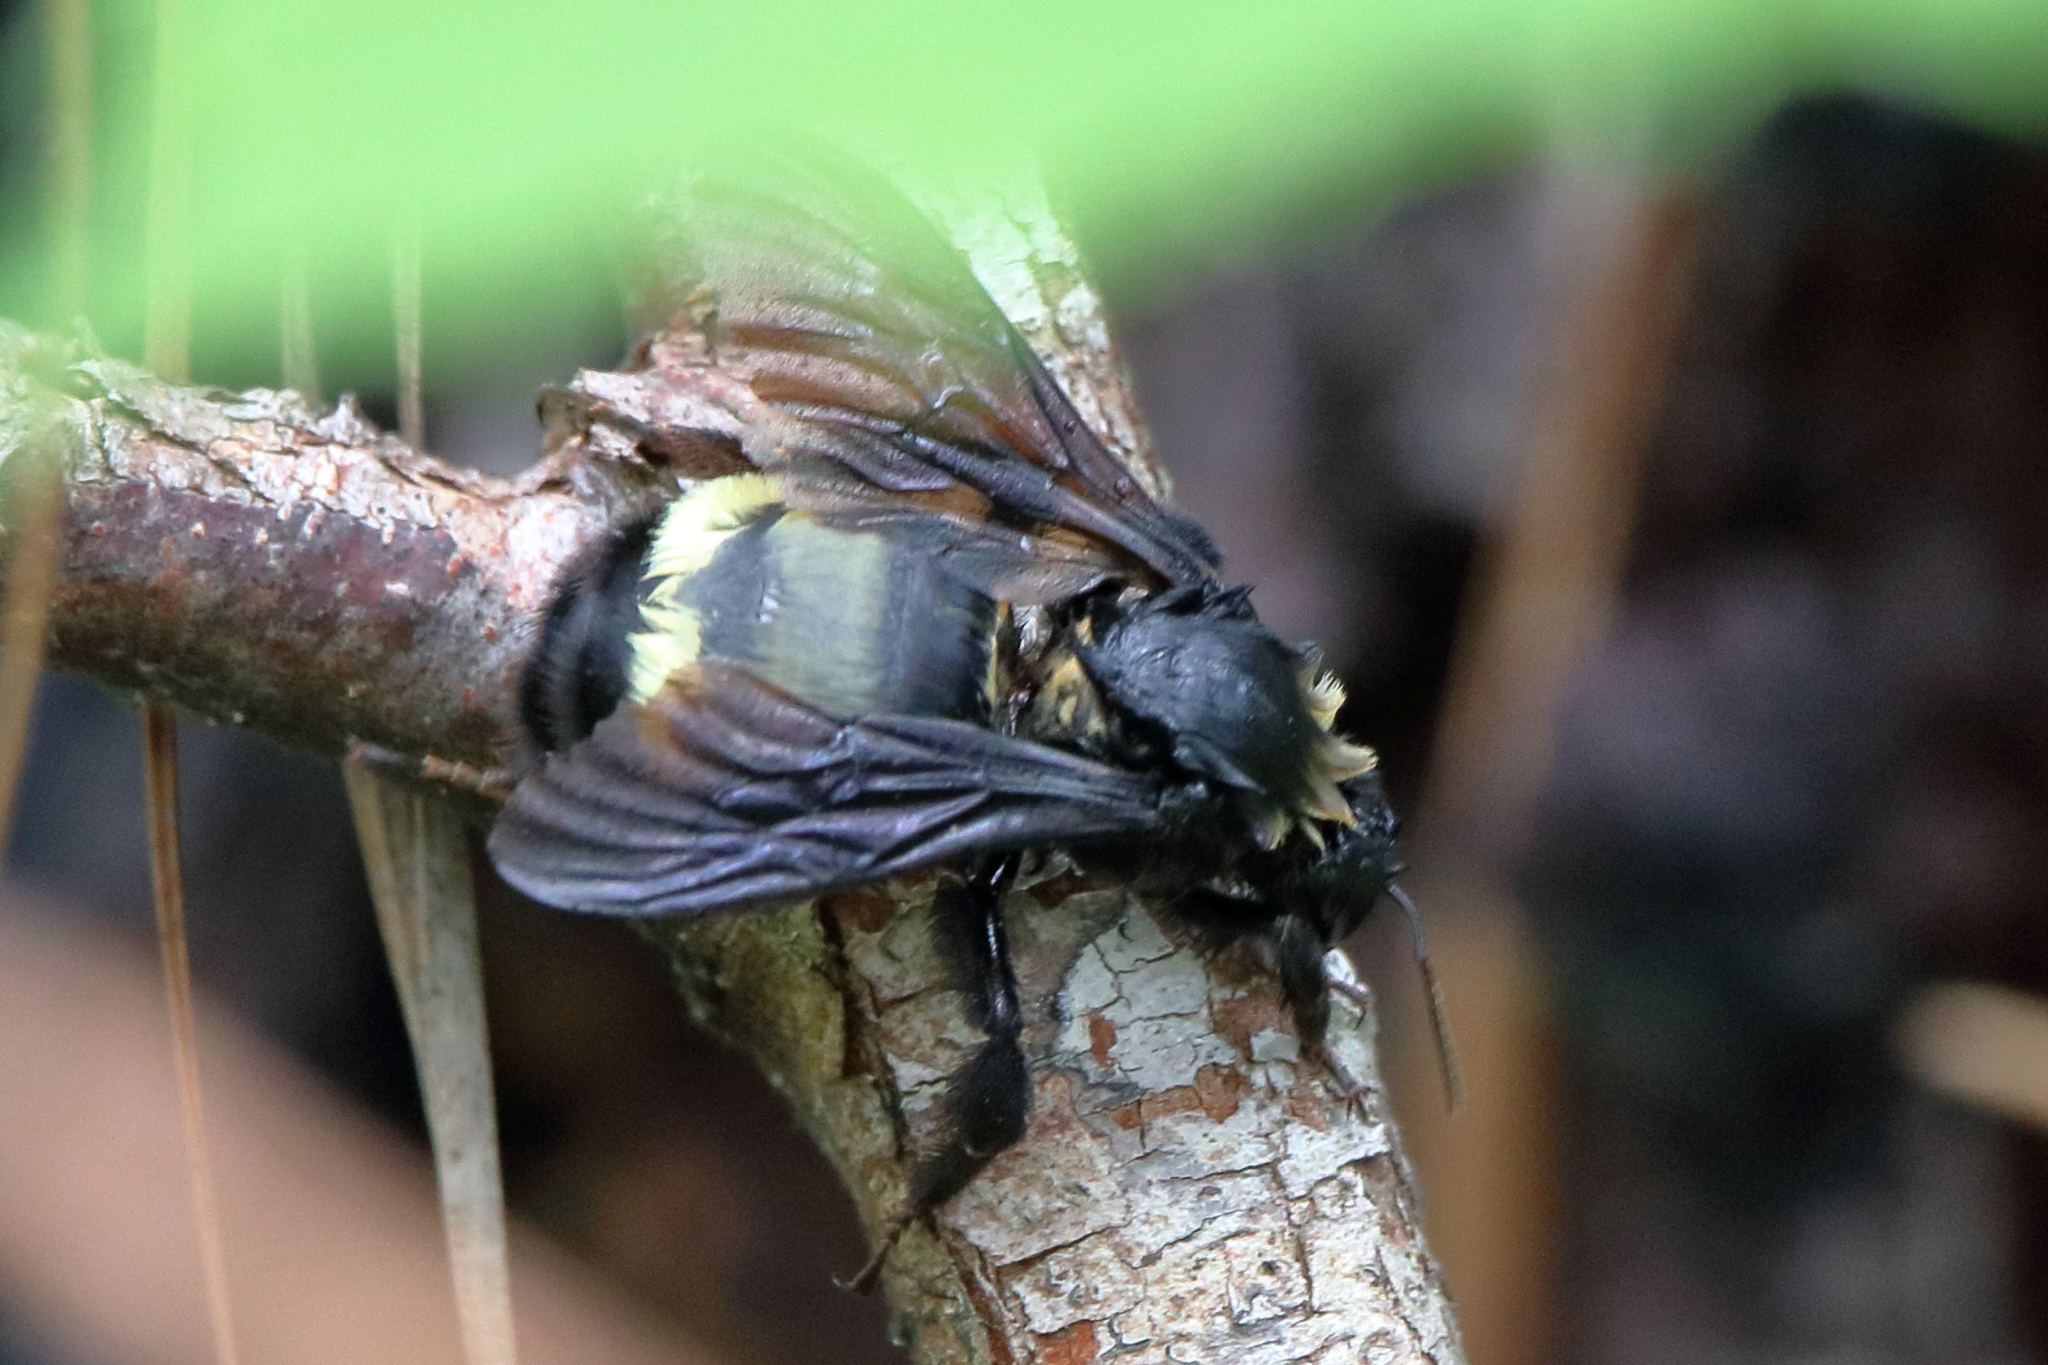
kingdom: Animalia
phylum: Arthropoda
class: Insecta
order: Hymenoptera
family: Apidae
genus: Bombus
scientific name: Bombus pensylvanicus
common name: Bumble bee
